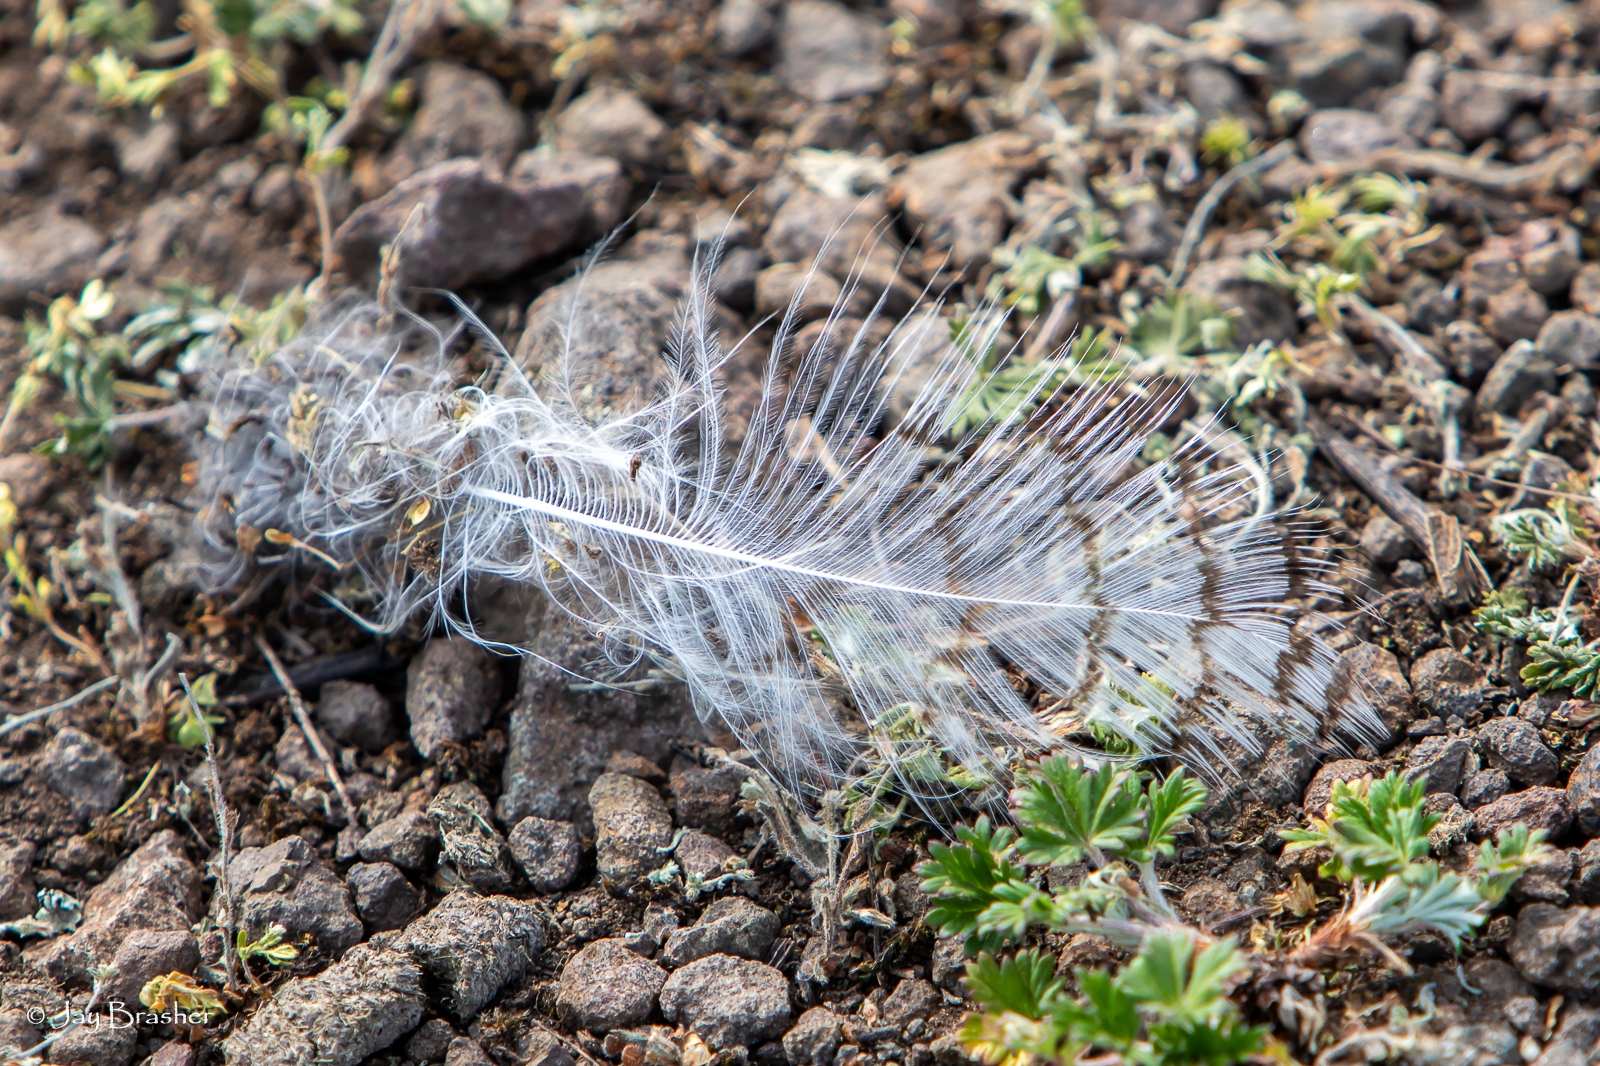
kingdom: Animalia
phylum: Chordata
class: Aves
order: Strigiformes
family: Strigidae
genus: Bubo
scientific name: Bubo virginianus
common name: Great horned owl
